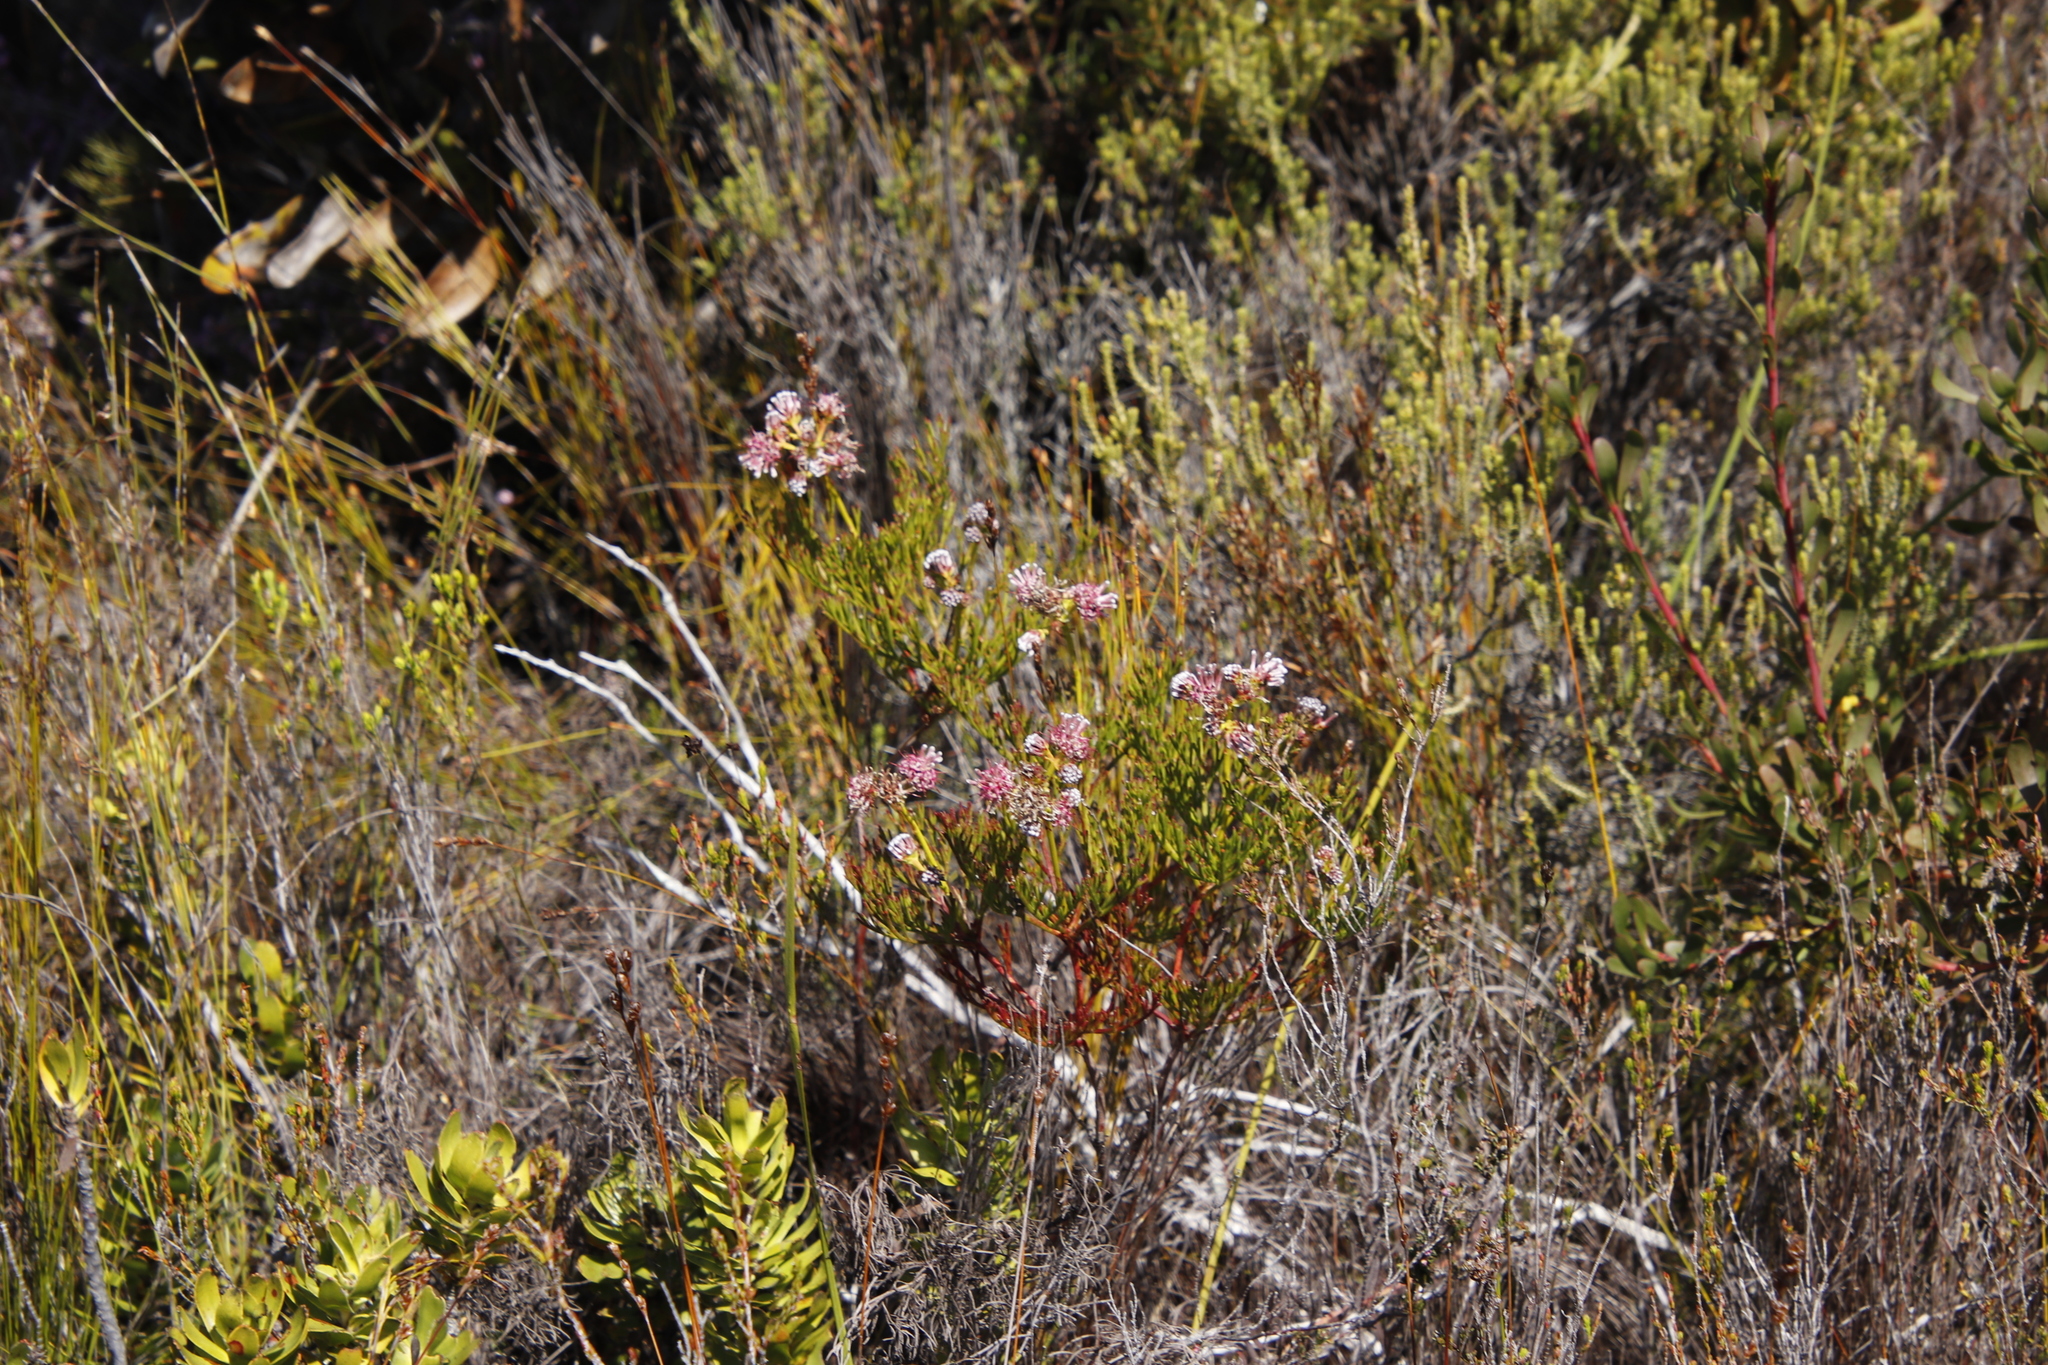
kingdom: Plantae
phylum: Tracheophyta
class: Magnoliopsida
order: Proteales
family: Proteaceae
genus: Serruria
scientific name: Serruria elongata
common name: Long-stalk spiderhead
